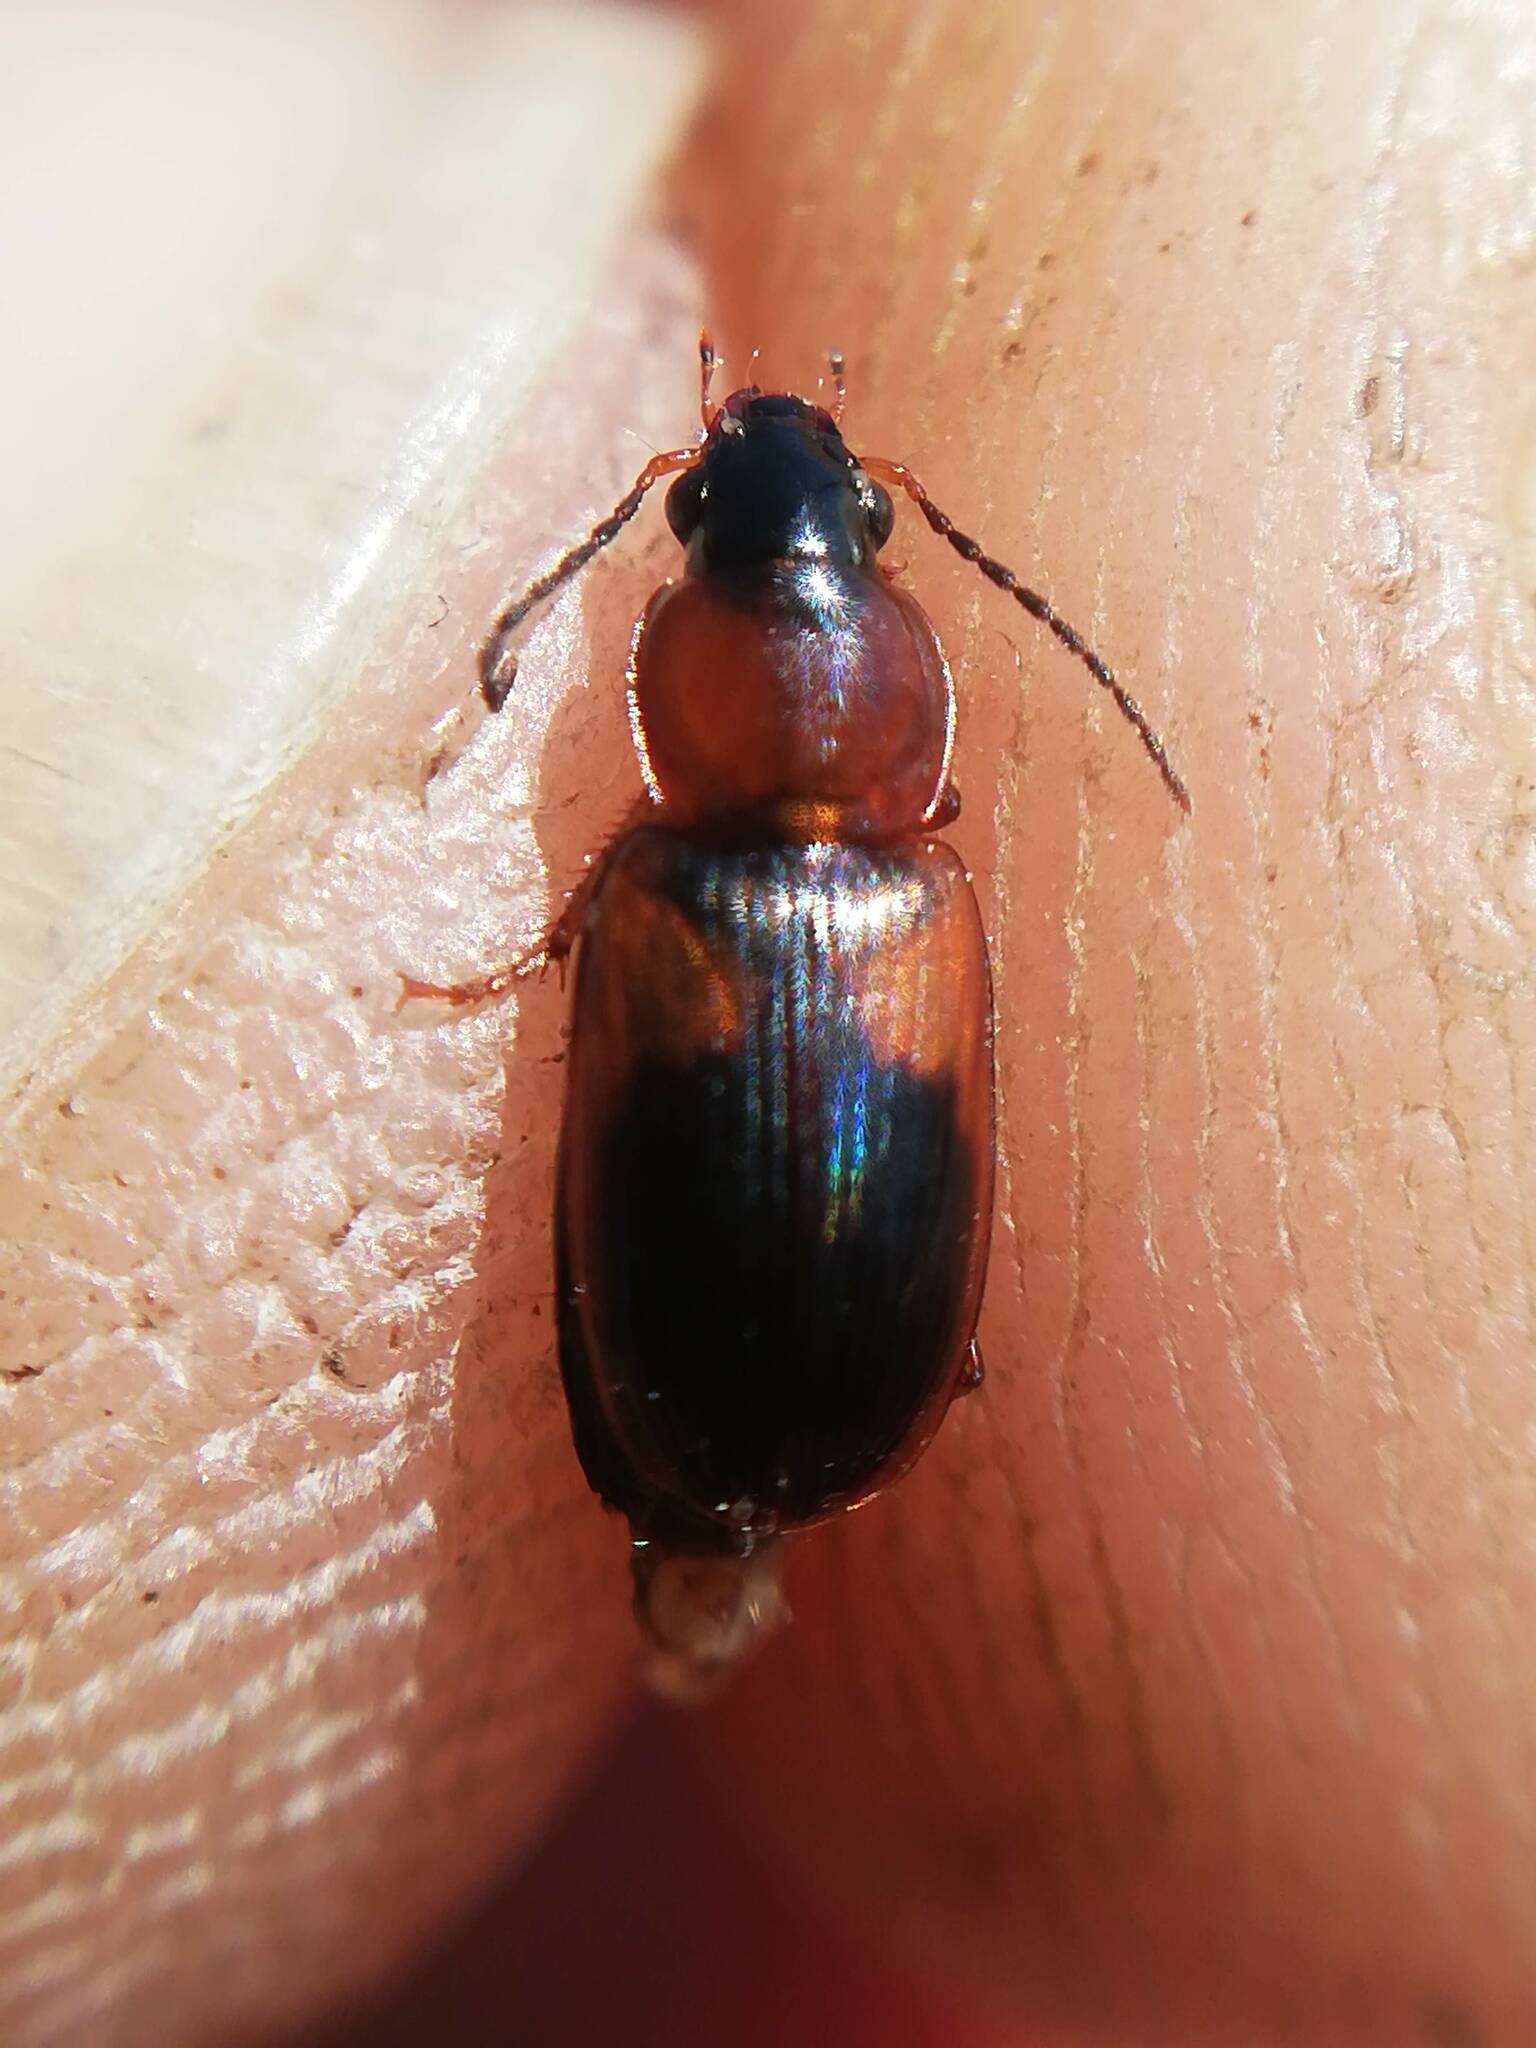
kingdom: Animalia
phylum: Arthropoda
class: Insecta
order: Coleoptera
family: Carabidae
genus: Stenolophus
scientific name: Stenolophus teutonus
